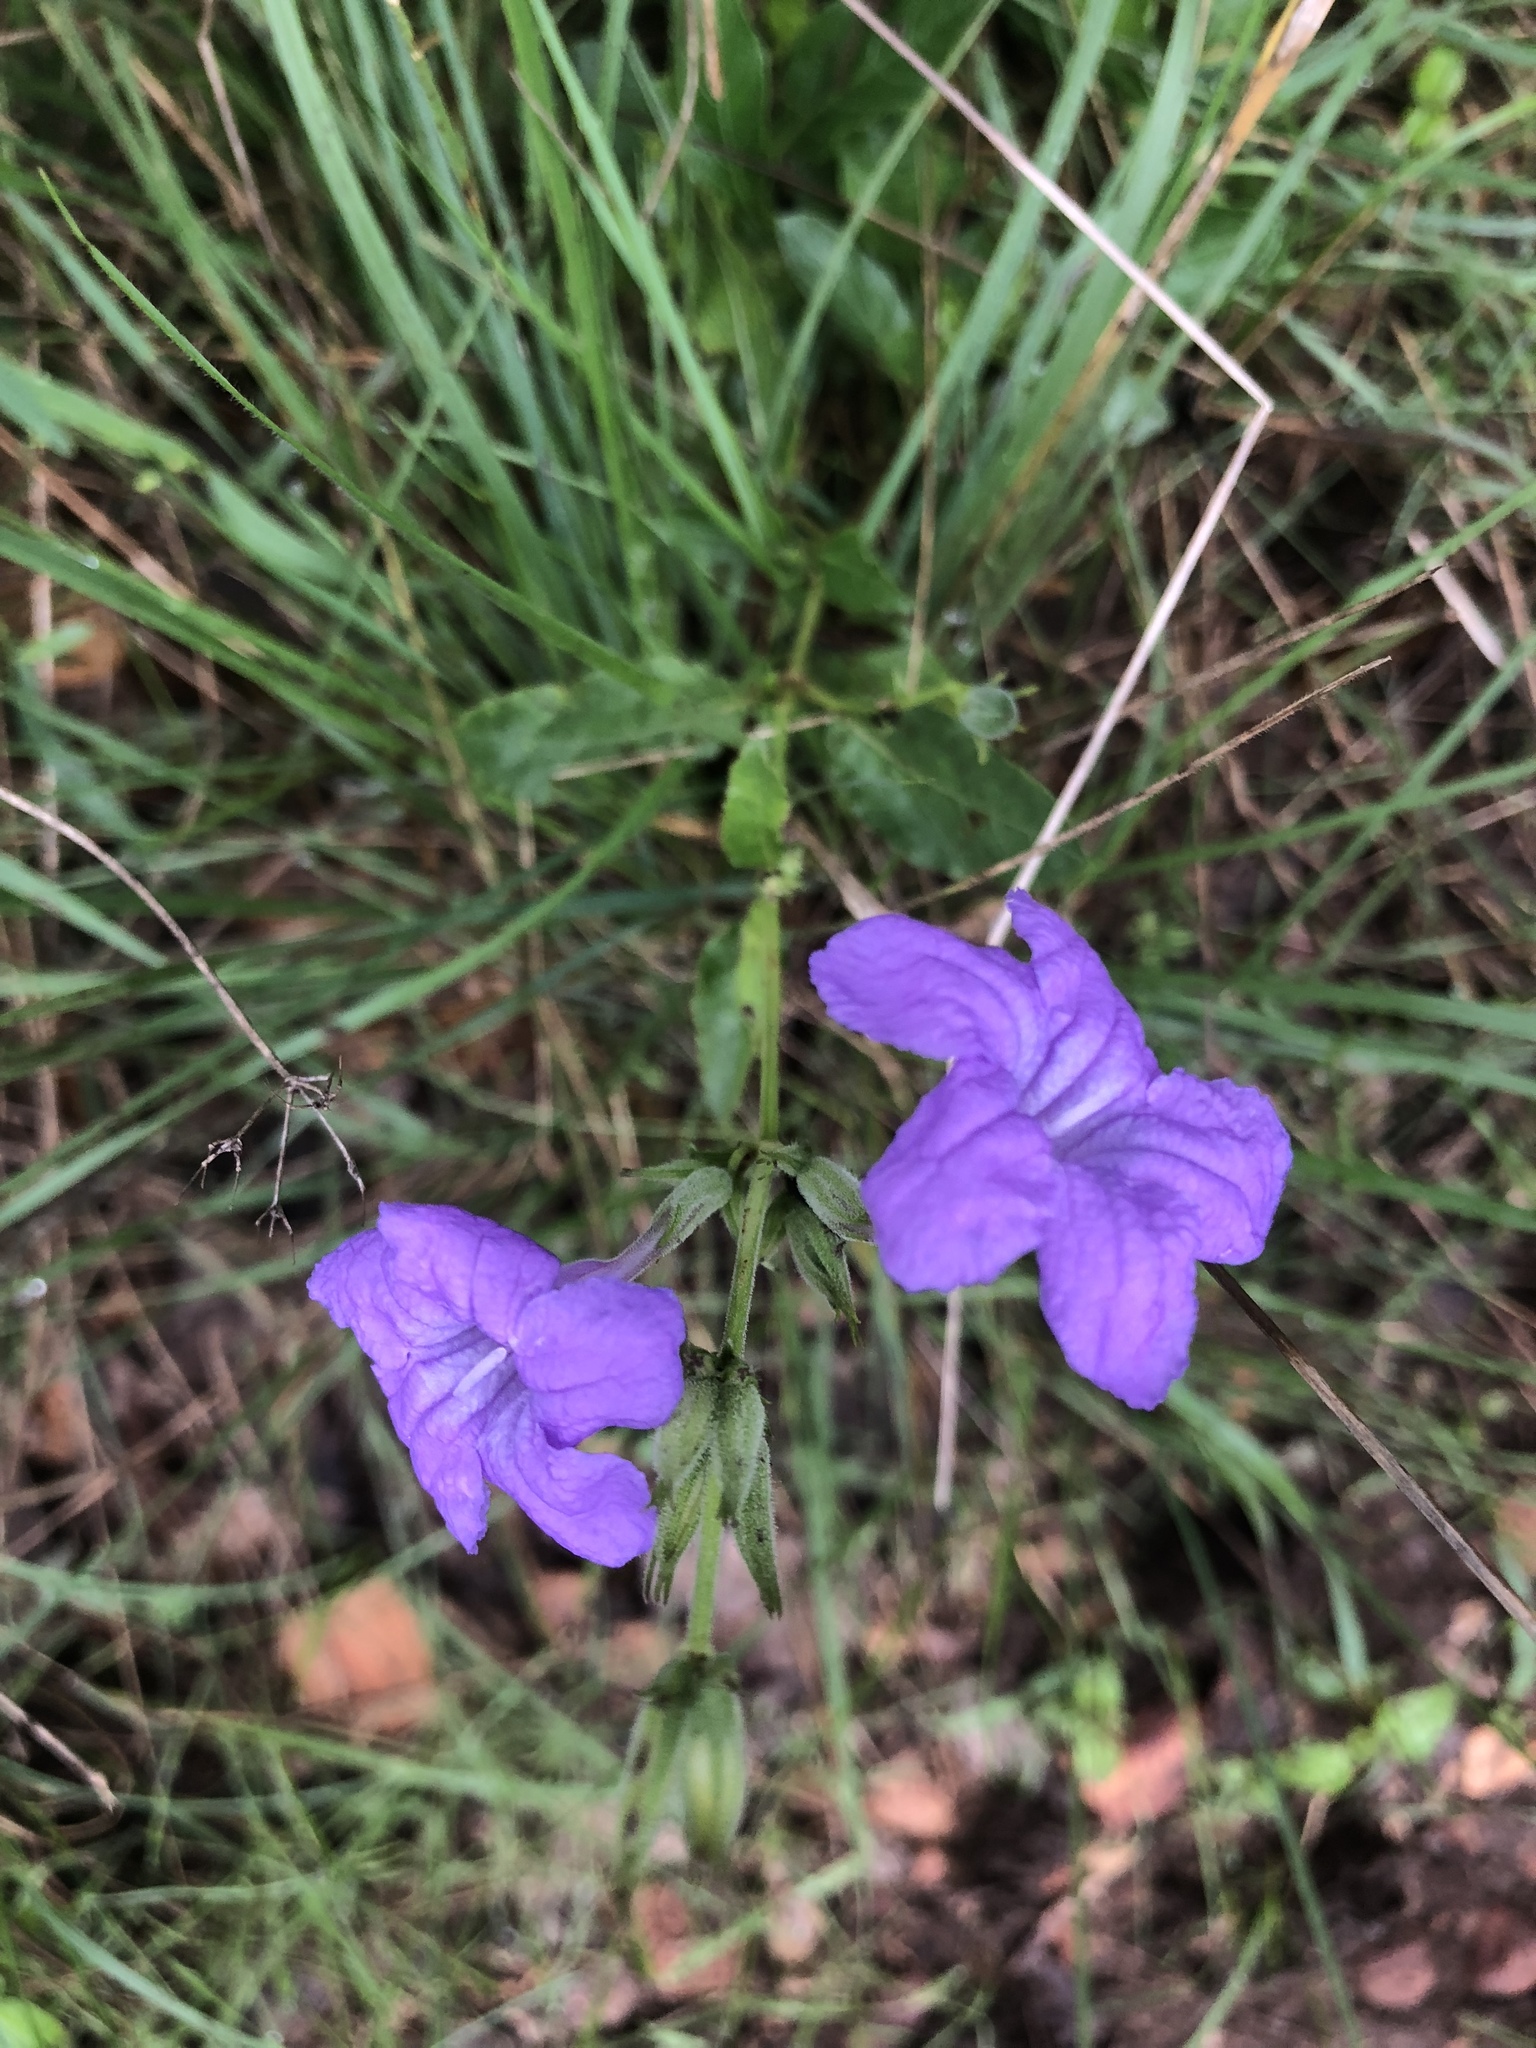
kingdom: Plantae
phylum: Tracheophyta
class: Magnoliopsida
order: Lamiales
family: Acanthaceae
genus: Ruellia
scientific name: Ruellia ciliatiflora
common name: Hairyflower wild petunia
